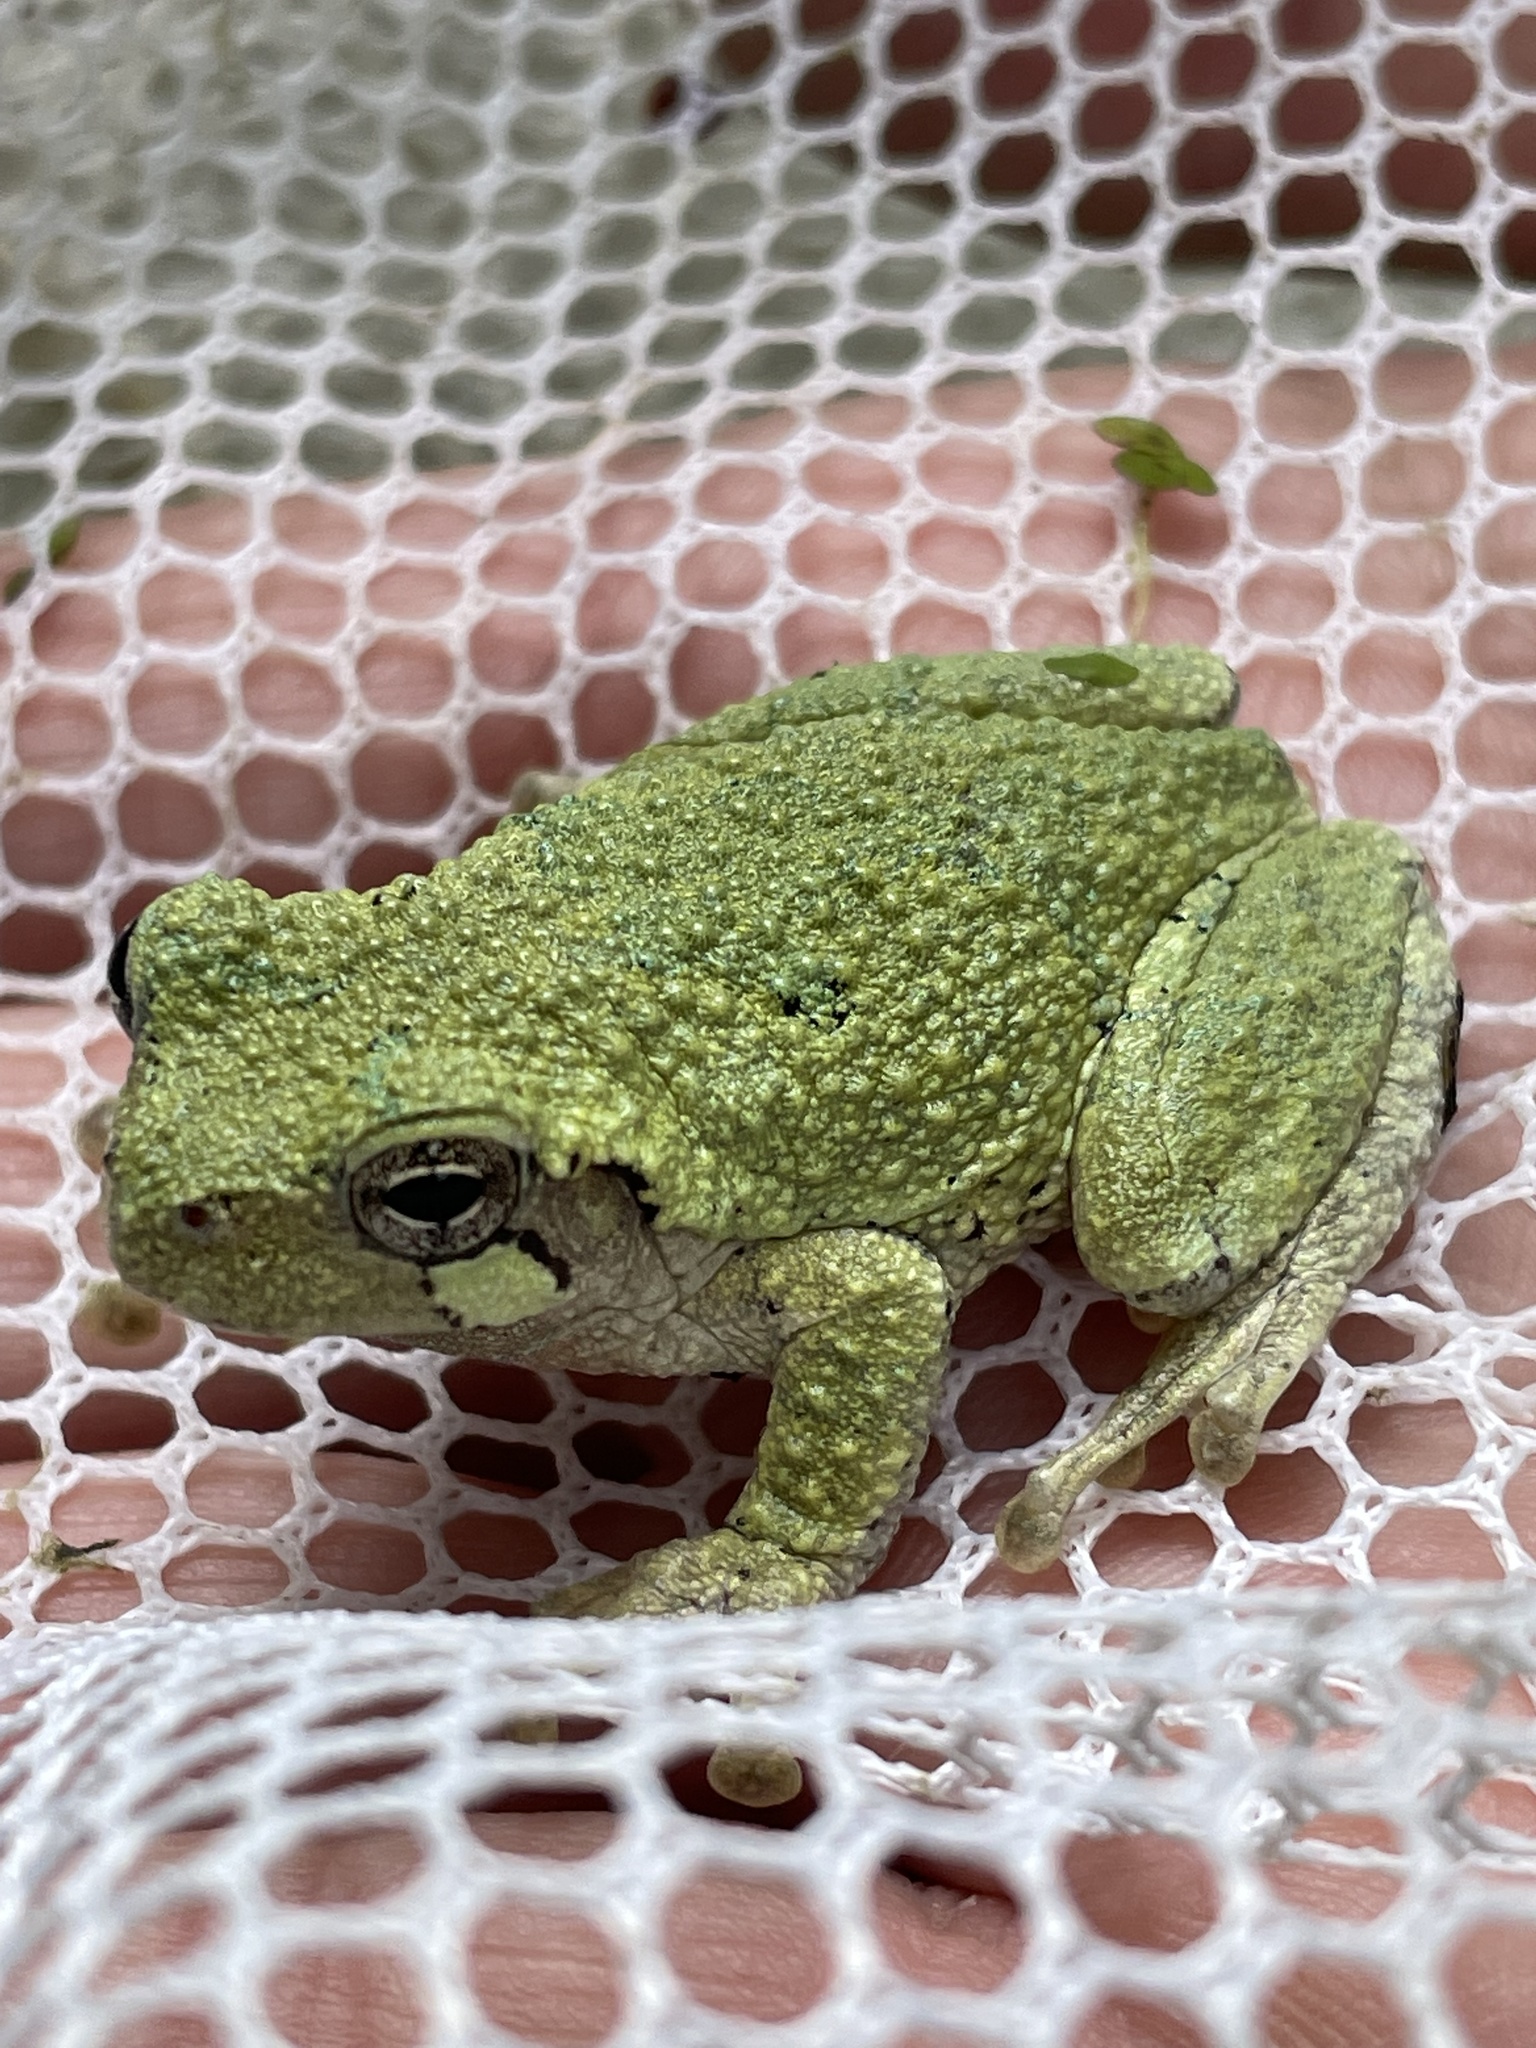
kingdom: Animalia
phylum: Chordata
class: Amphibia
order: Anura
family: Hylidae
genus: Dryophytes
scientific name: Dryophytes chrysoscelis
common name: Cope's gray treefrog
